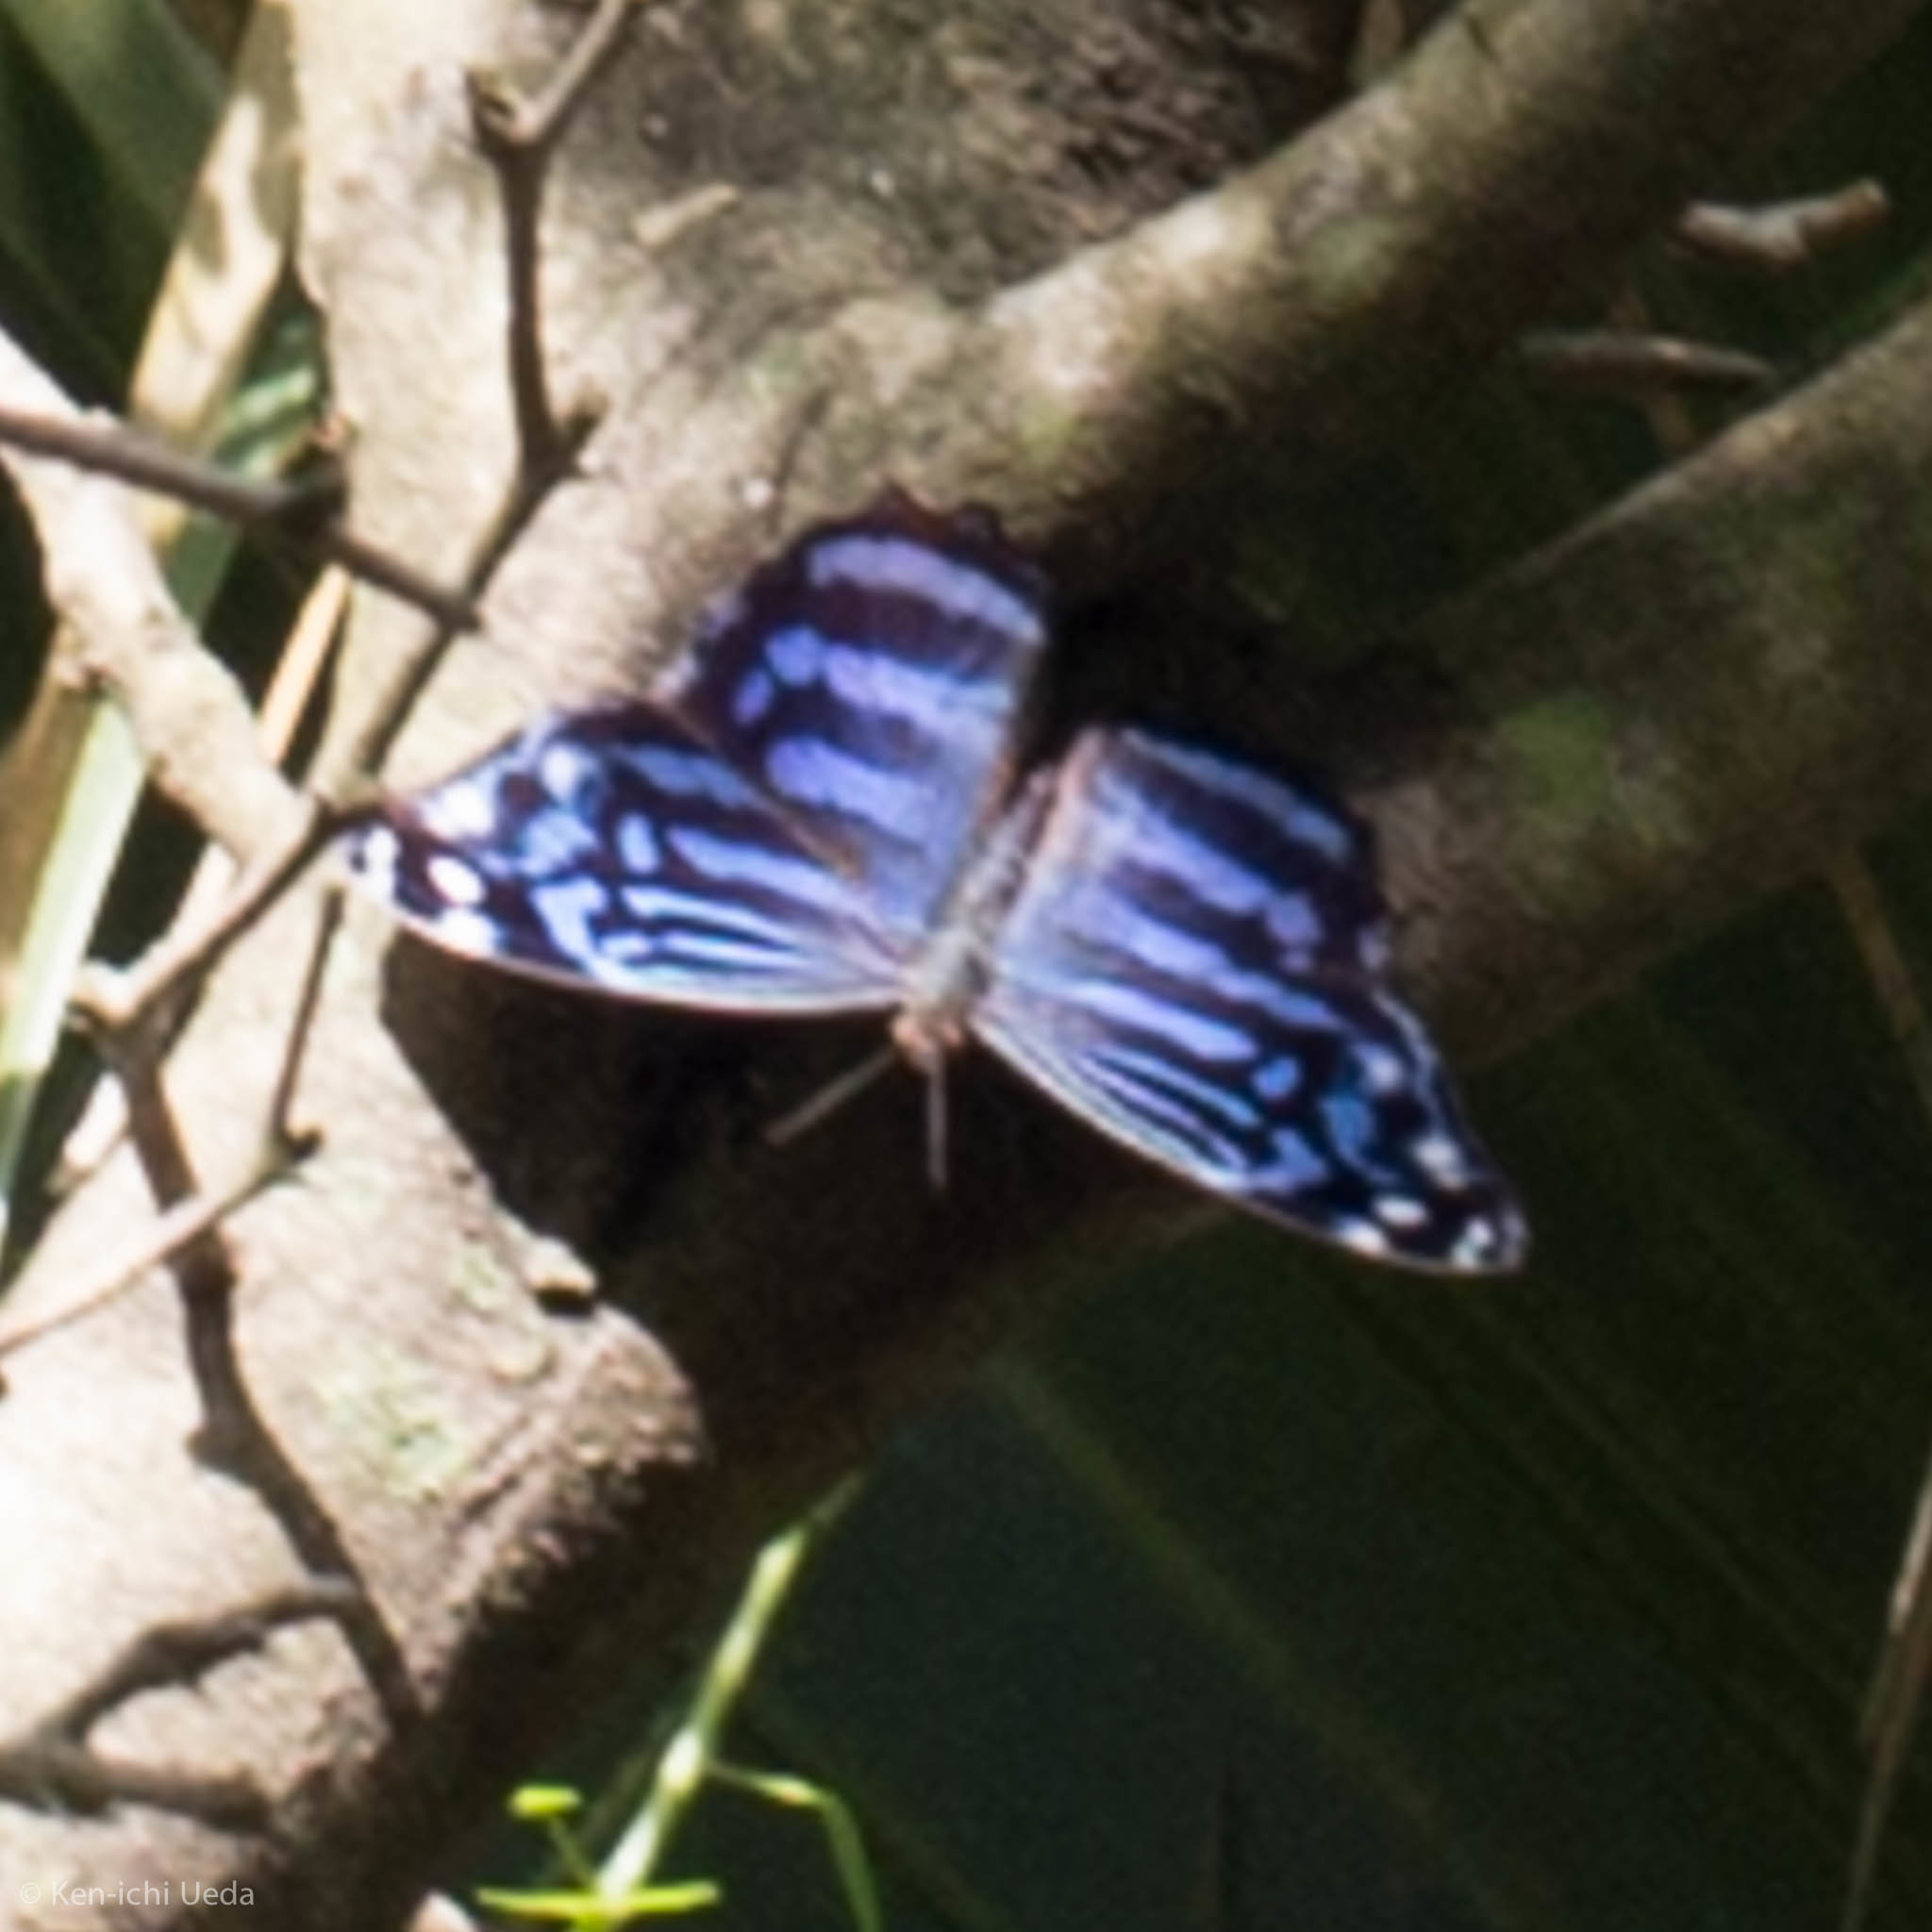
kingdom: Animalia
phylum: Arthropoda
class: Insecta
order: Lepidoptera
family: Nymphalidae
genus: Myscelia
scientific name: Myscelia ethusa
